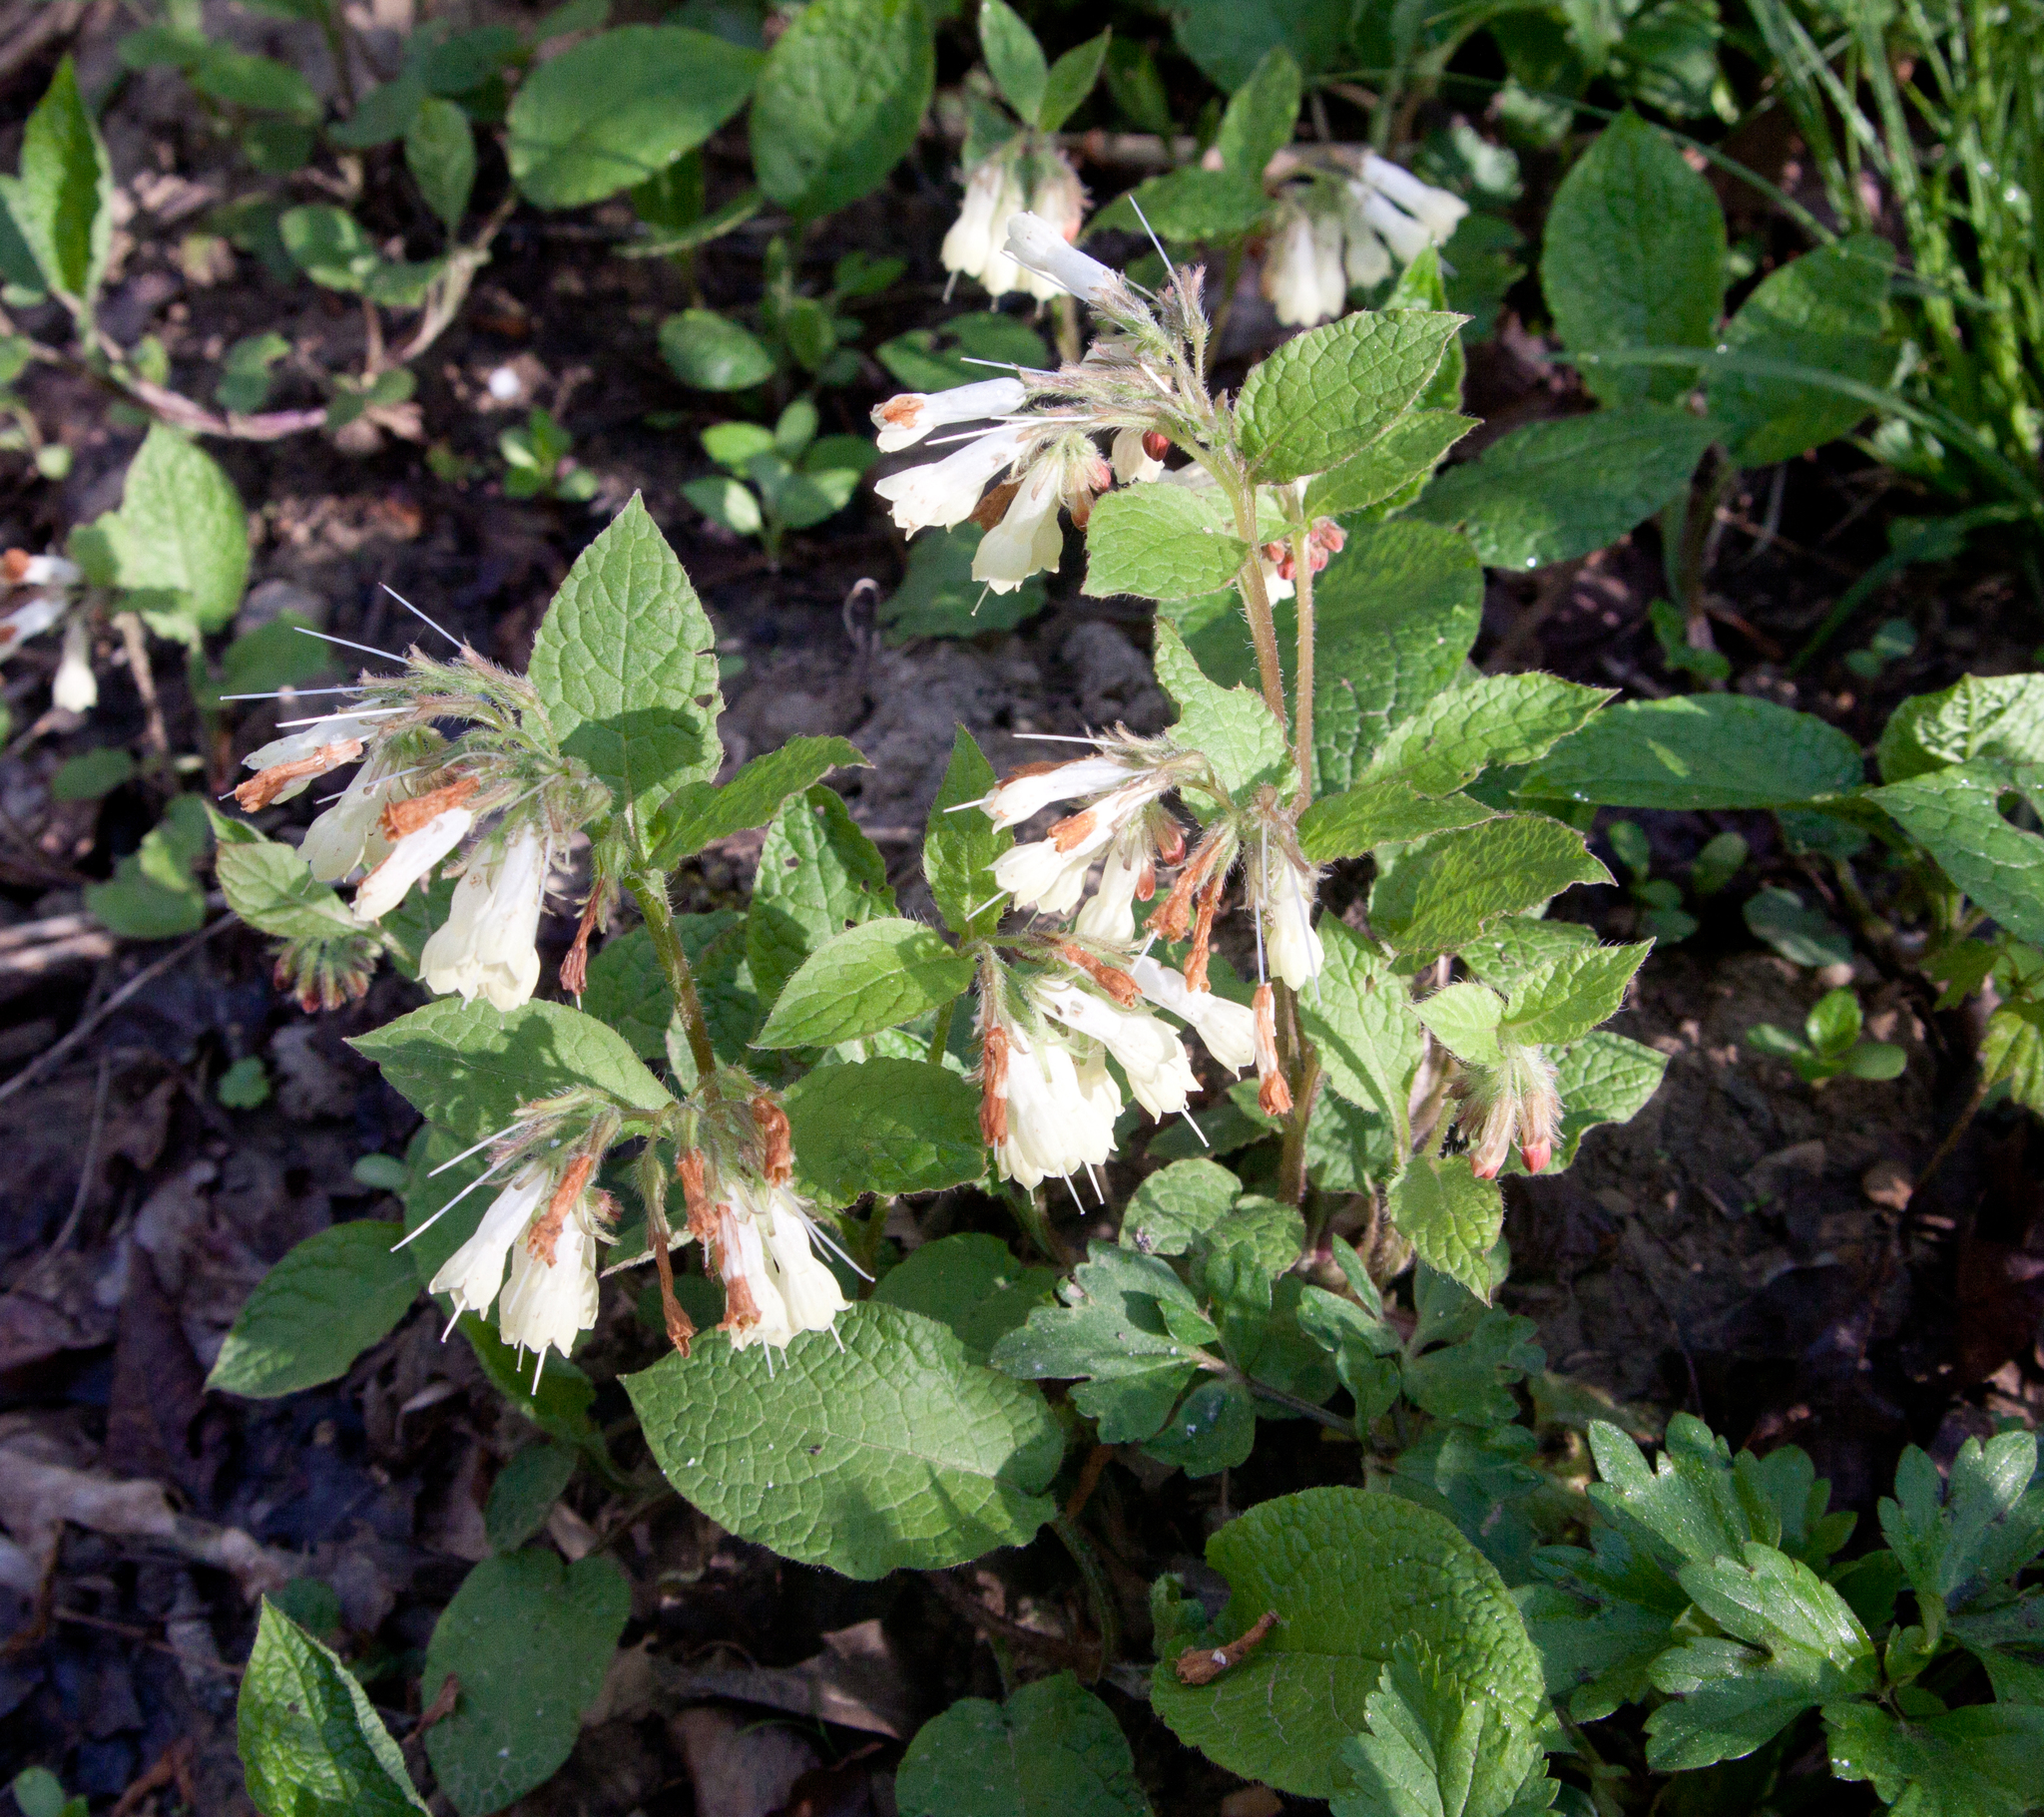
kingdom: Plantae
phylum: Tracheophyta
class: Magnoliopsida
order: Boraginales
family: Boraginaceae
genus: Symphytum
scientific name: Symphytum grandiflorum
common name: Creeping comfrey
